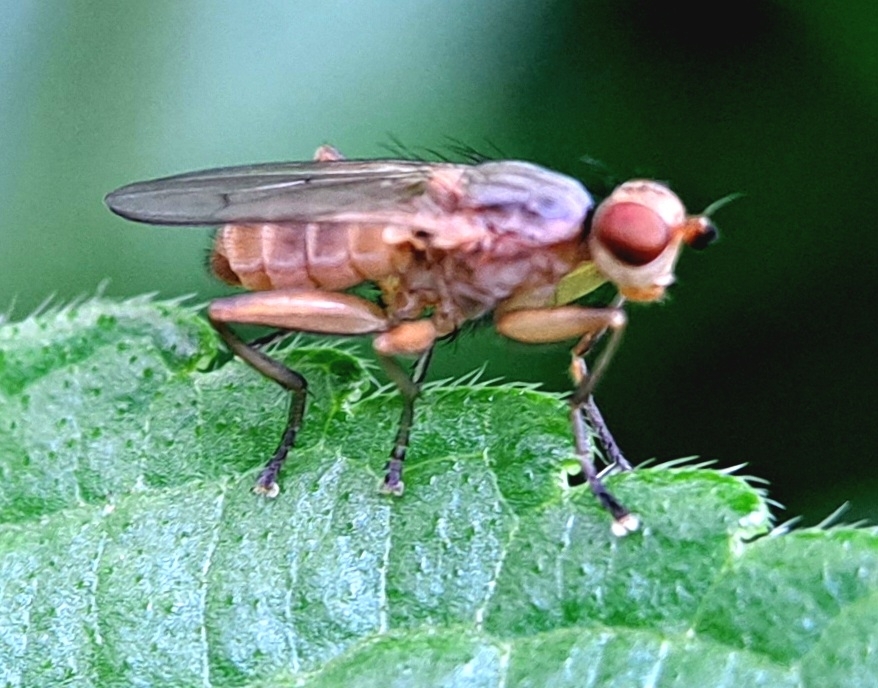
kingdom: Animalia
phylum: Arthropoda
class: Insecta
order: Diptera
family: Sciomyzidae
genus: Pherbellia
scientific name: Pherbellia dubia
